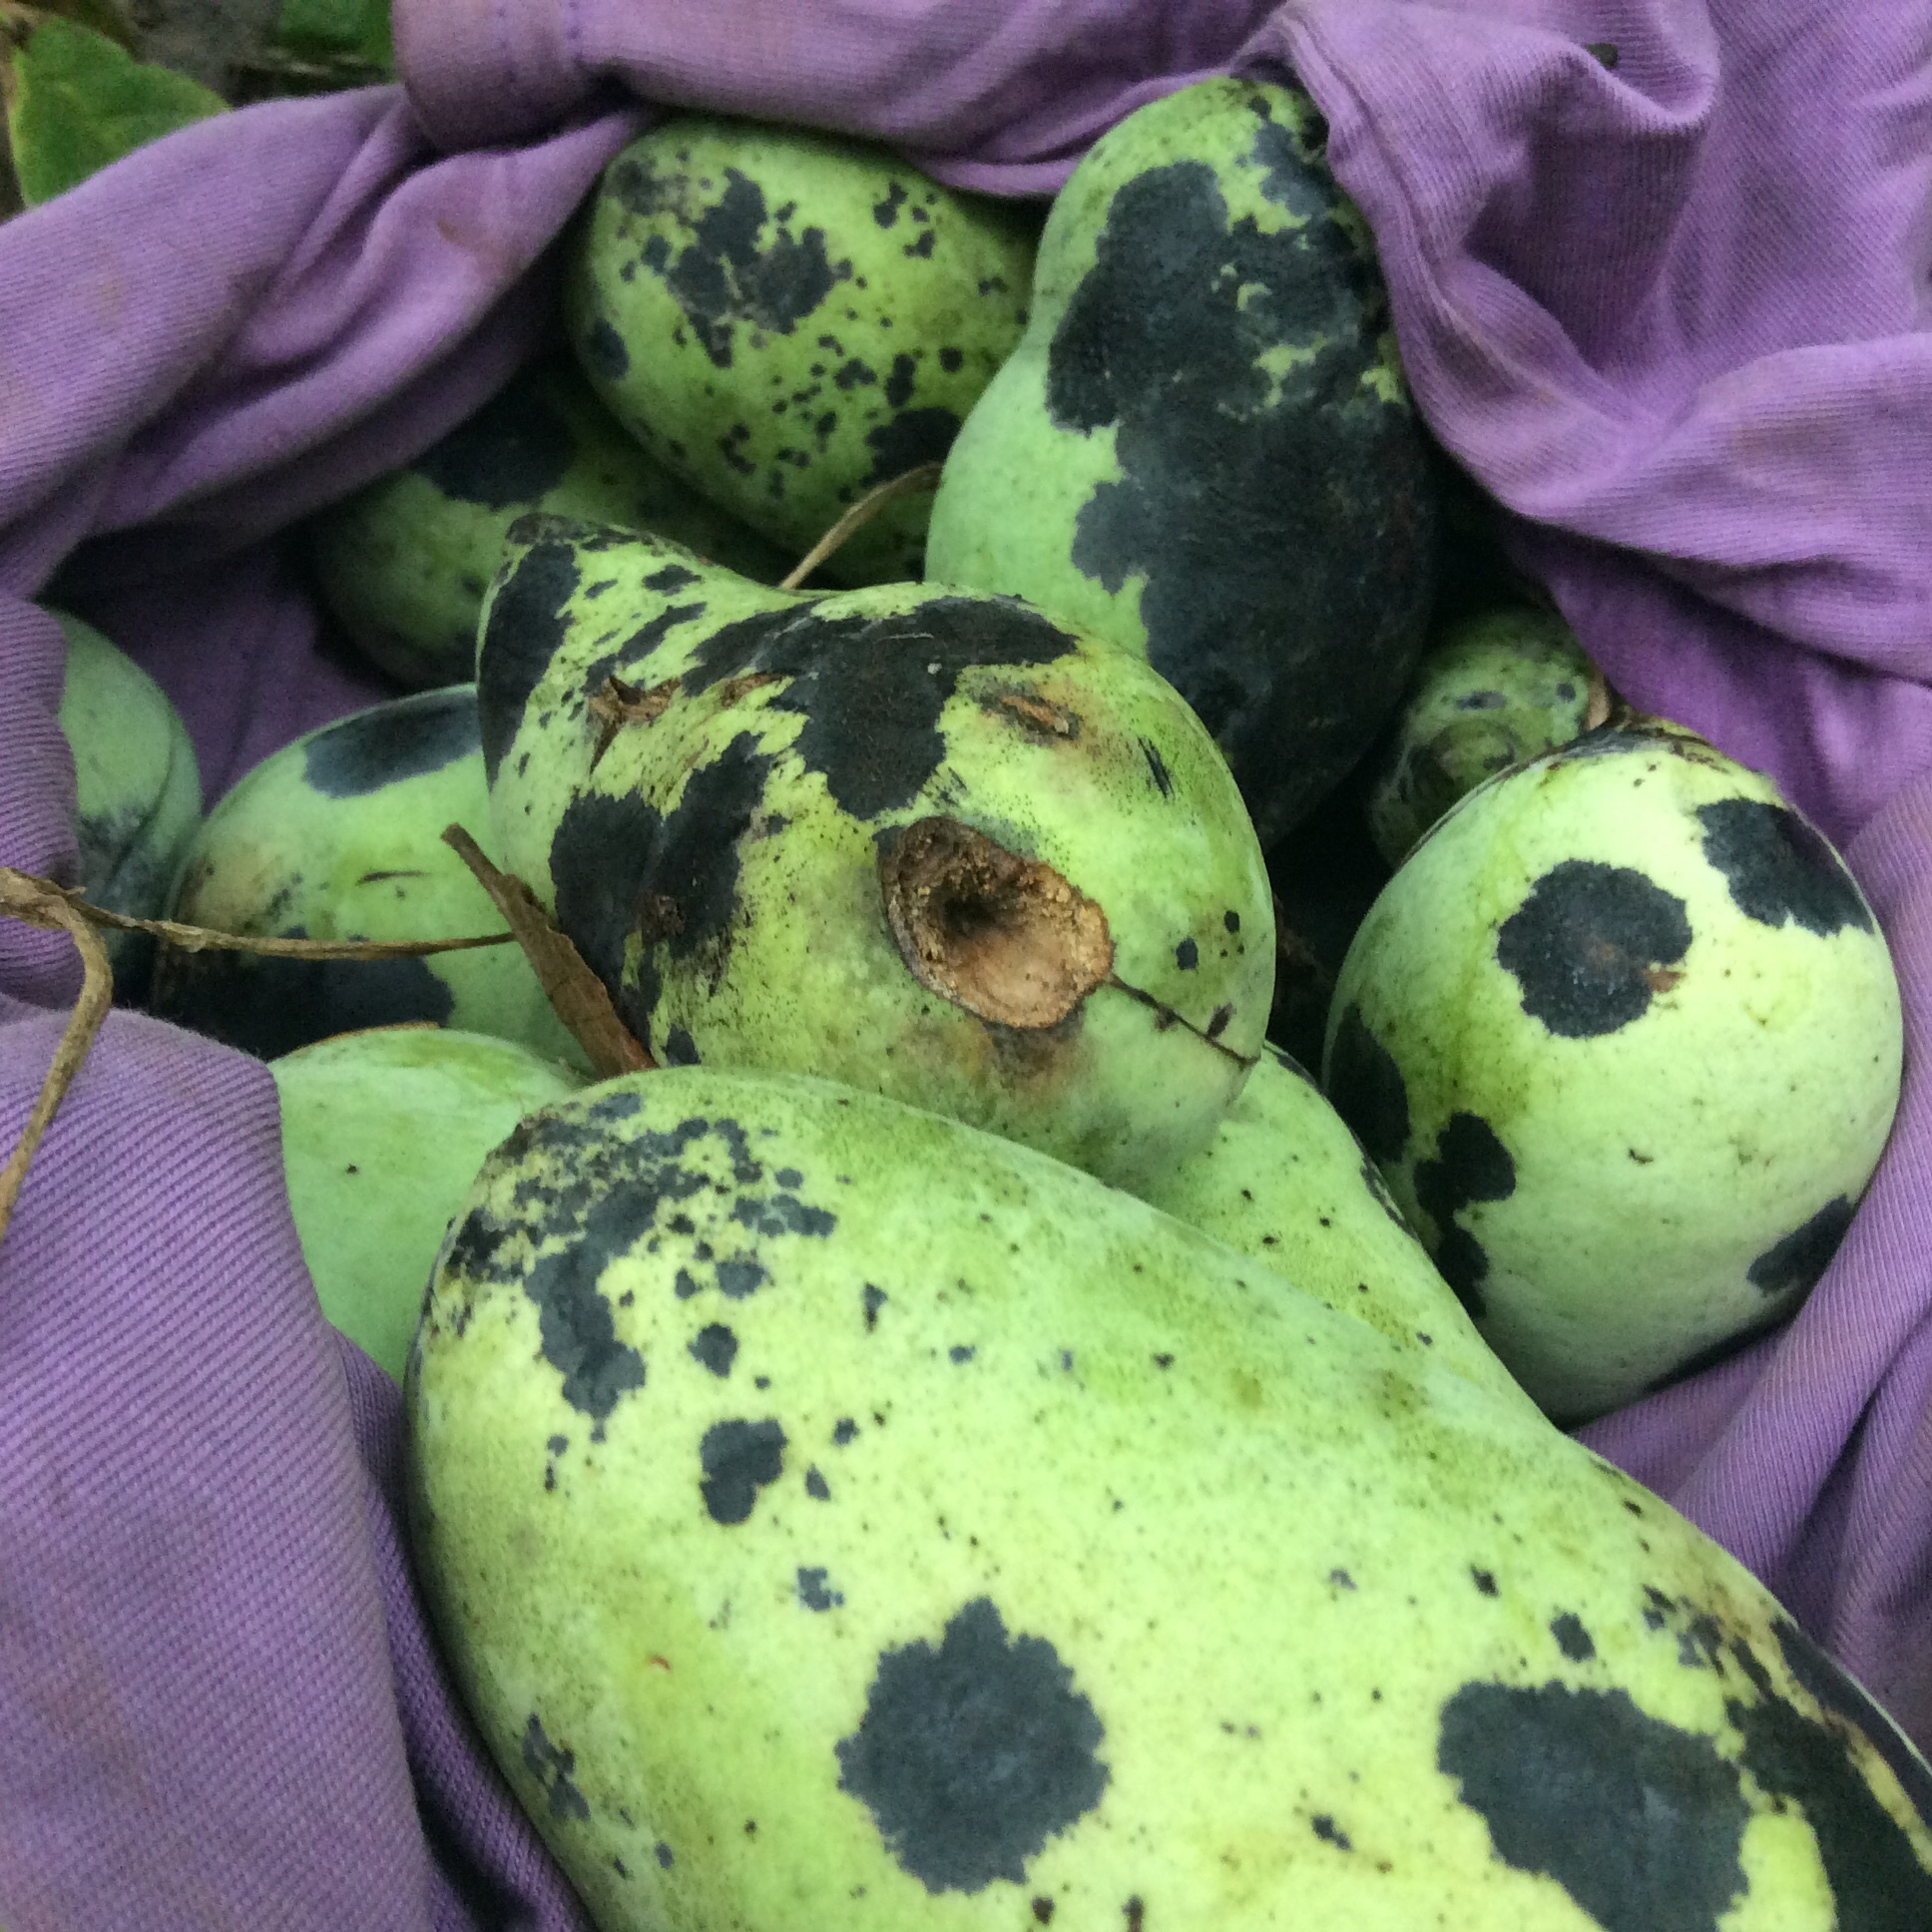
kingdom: Plantae
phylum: Tracheophyta
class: Magnoliopsida
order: Magnoliales
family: Annonaceae
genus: Asimina
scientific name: Asimina triloba
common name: Dog-banana
